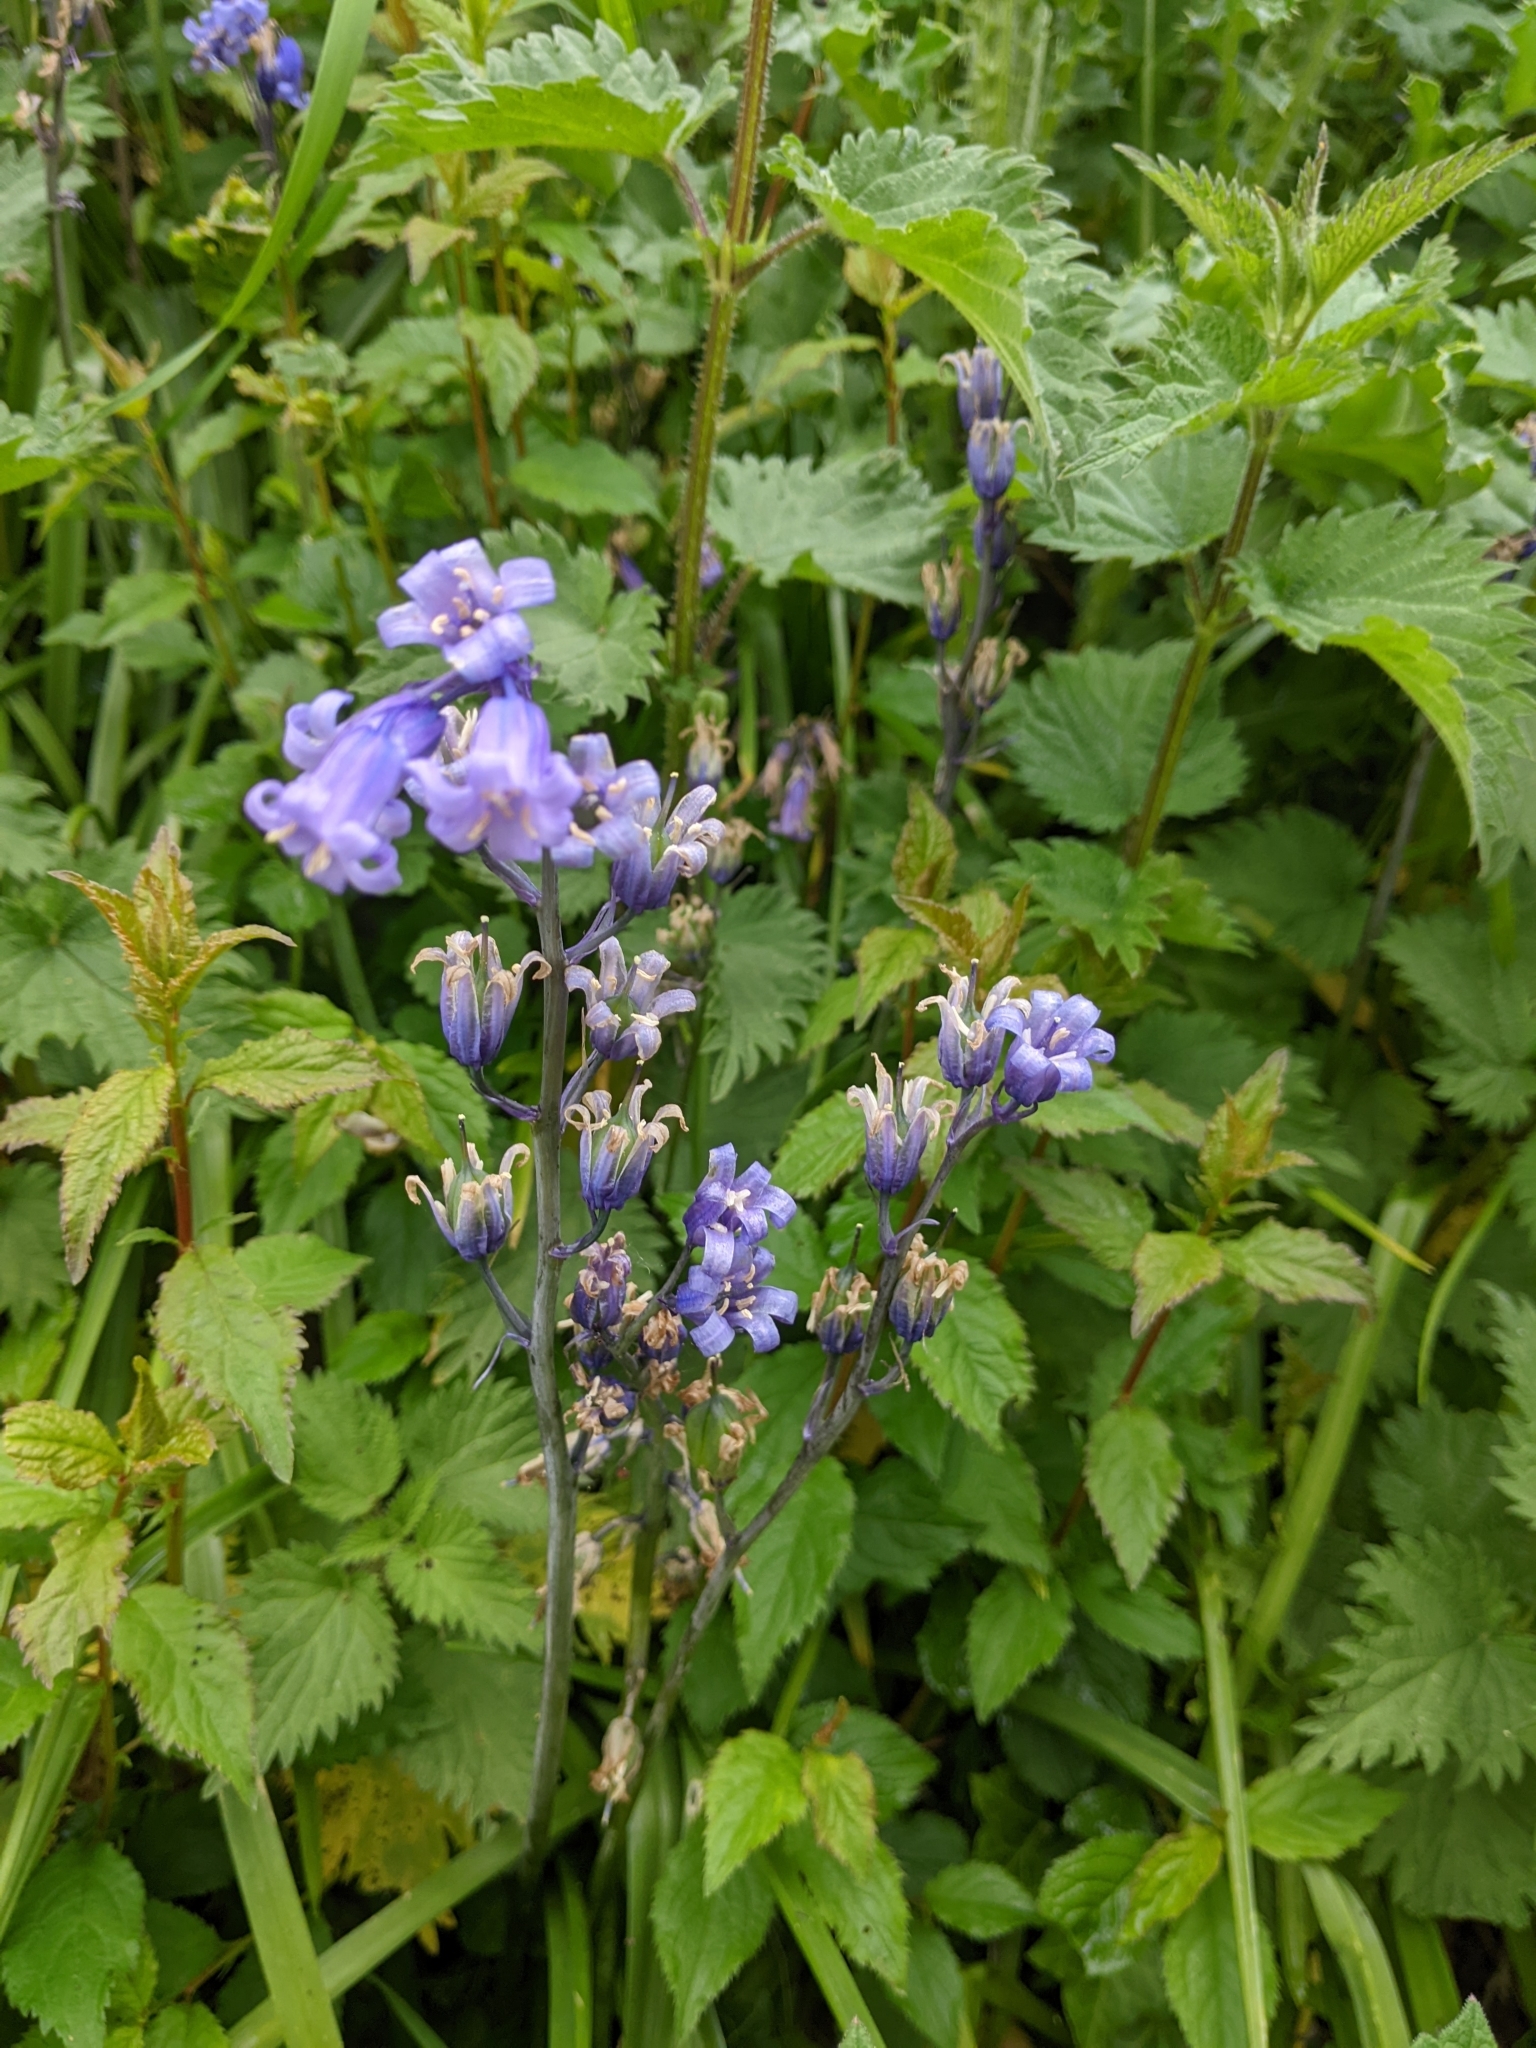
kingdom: Plantae
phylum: Tracheophyta
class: Liliopsida
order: Asparagales
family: Asparagaceae
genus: Hyacinthoides
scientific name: Hyacinthoides non-scripta
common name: Bluebell
